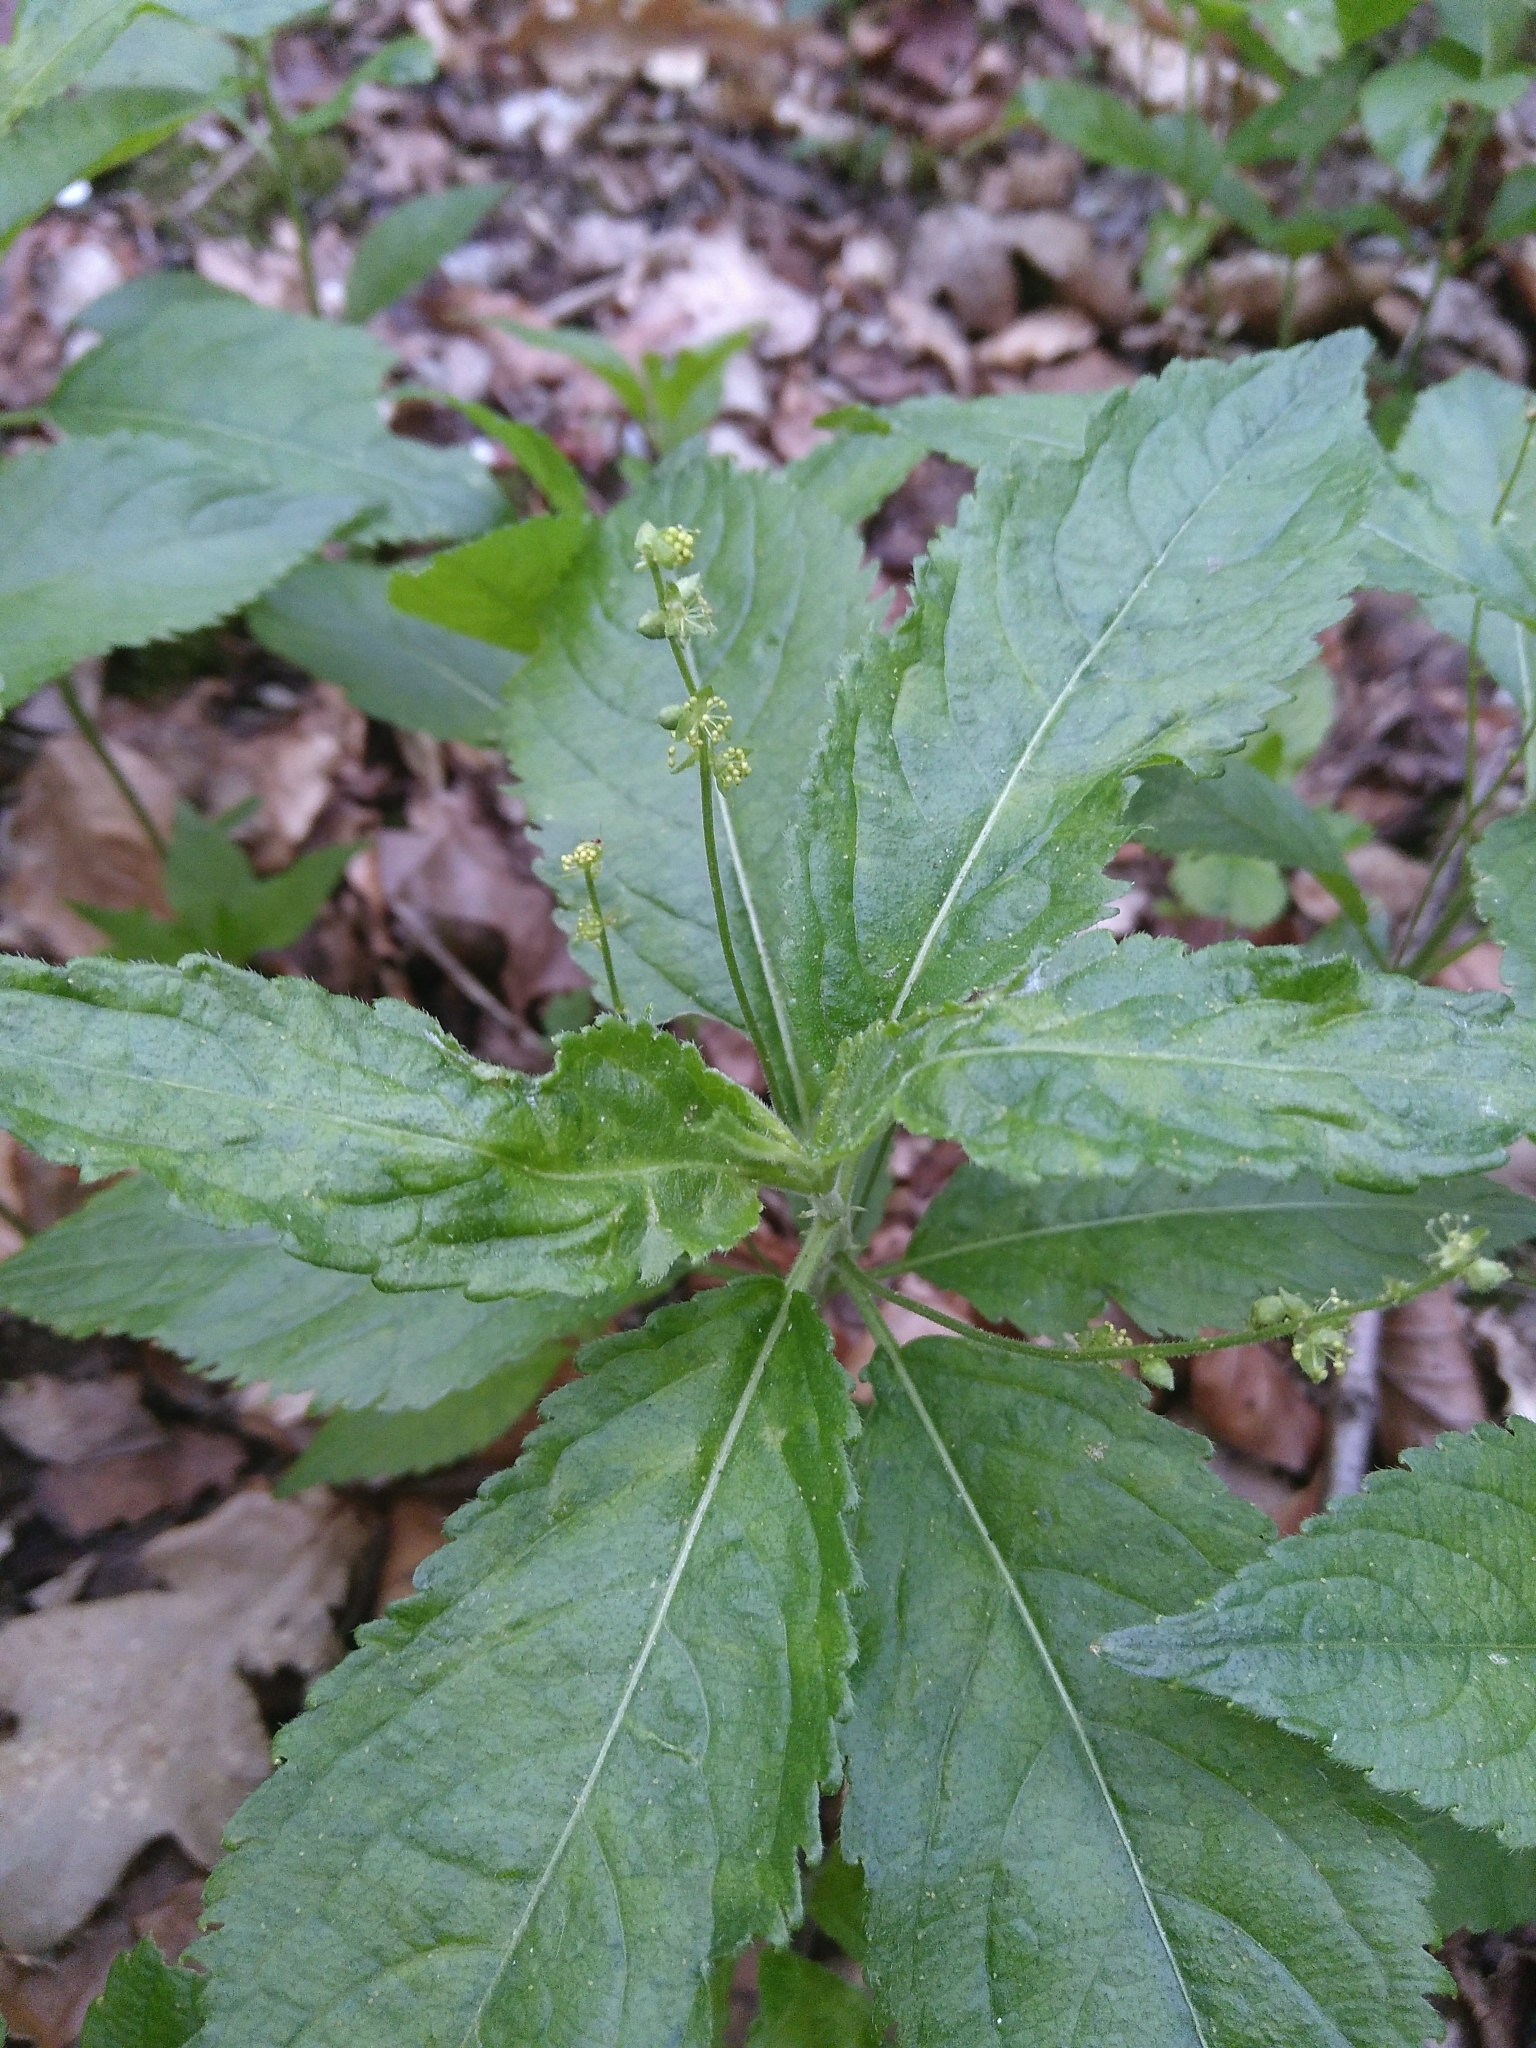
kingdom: Plantae
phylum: Tracheophyta
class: Magnoliopsida
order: Malpighiales
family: Euphorbiaceae
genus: Mercurialis
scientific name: Mercurialis perennis
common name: Dog mercury
